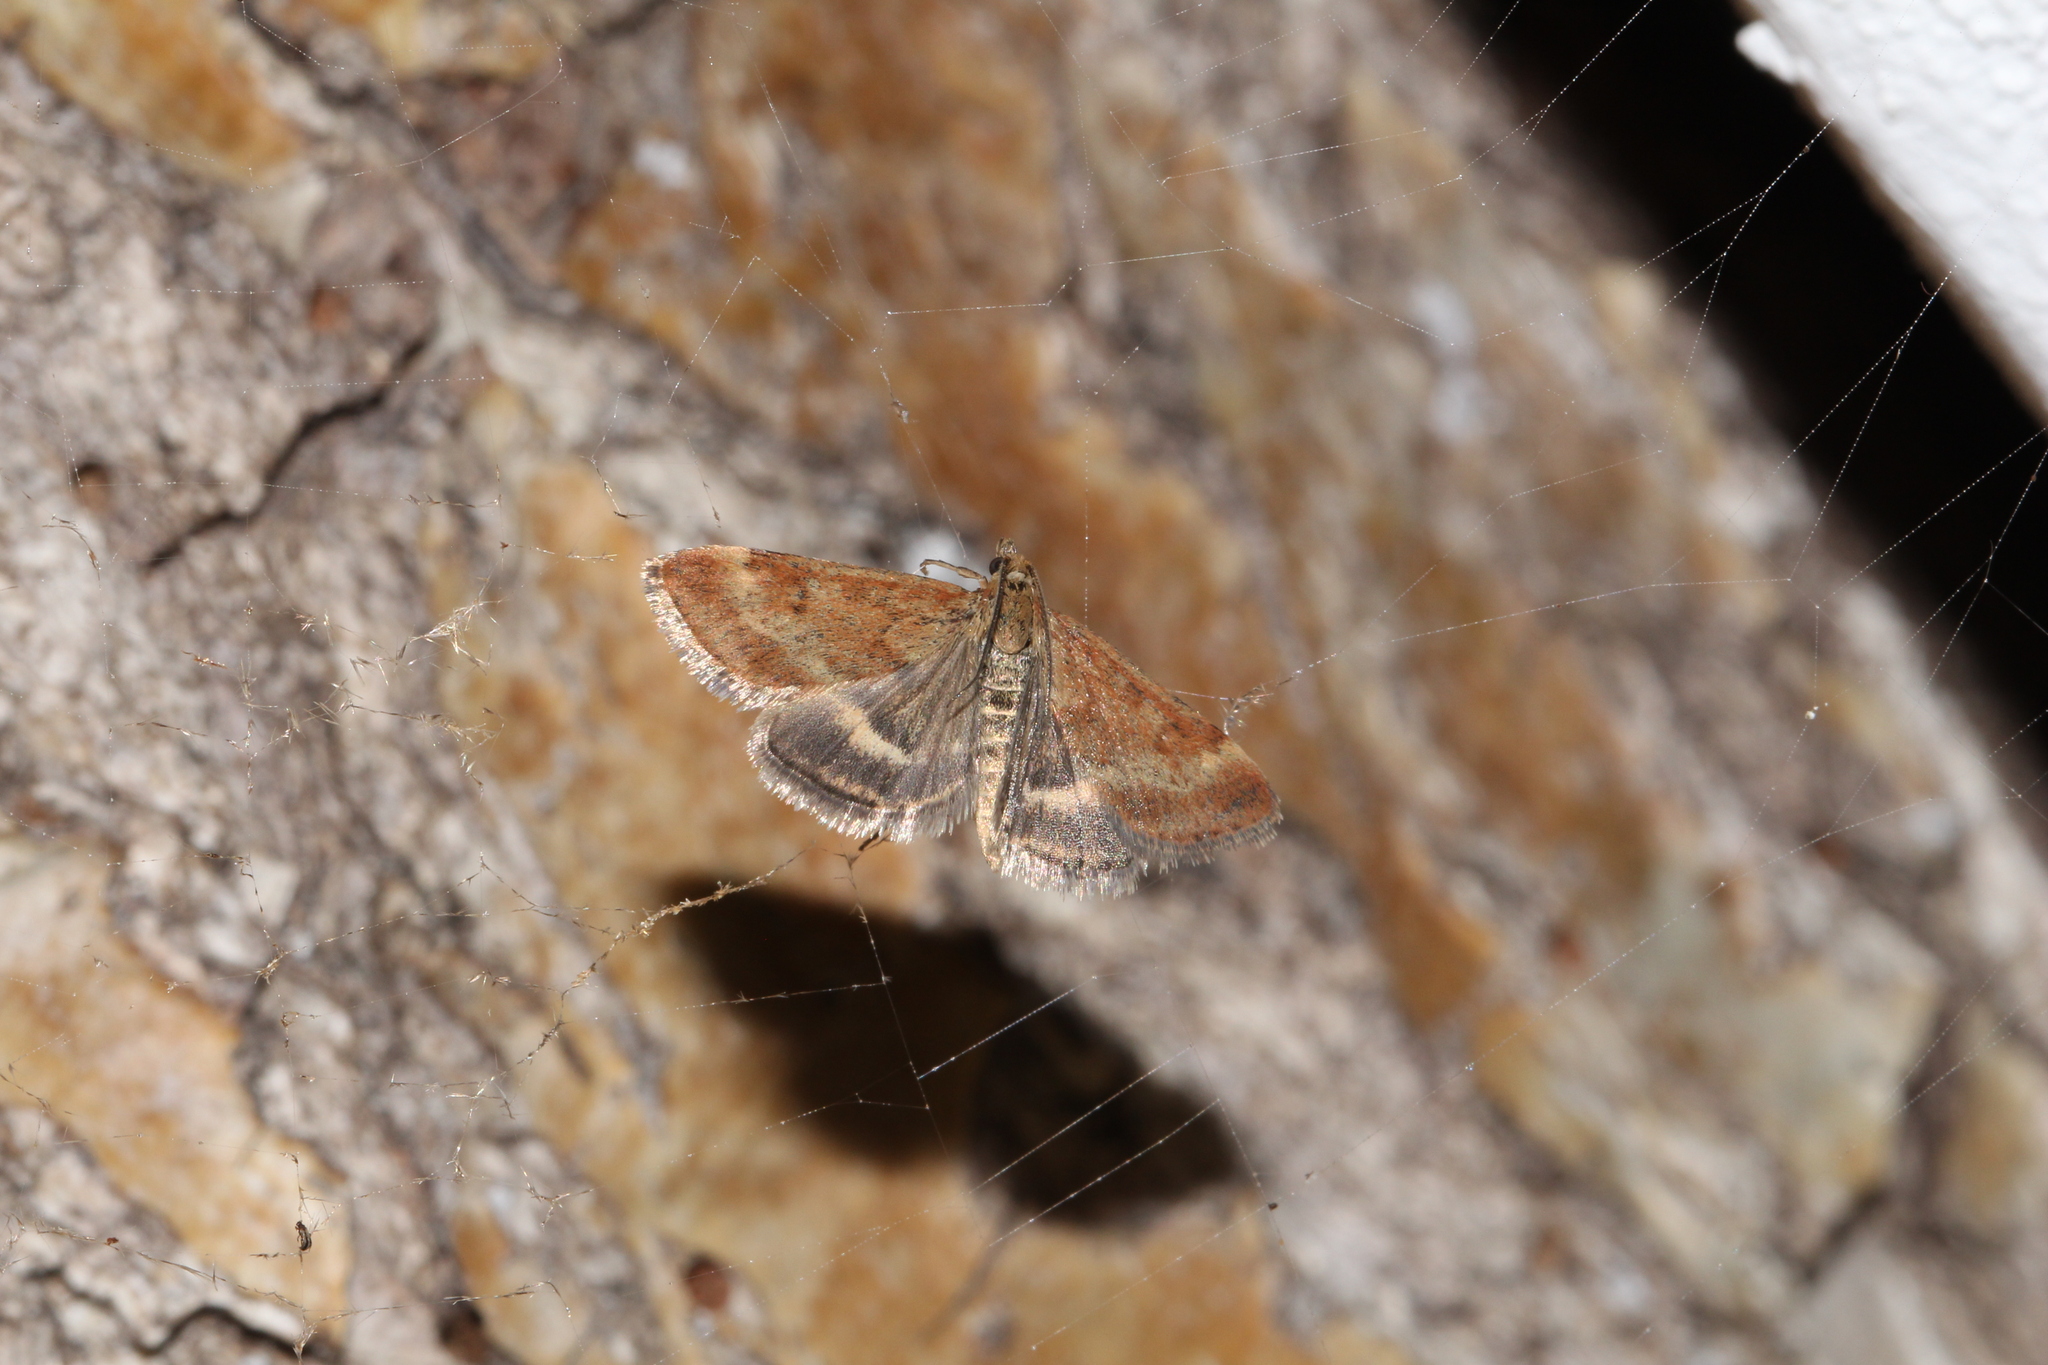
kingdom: Animalia
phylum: Arthropoda
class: Insecta
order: Lepidoptera
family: Crambidae
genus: Pyrausta
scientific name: Pyrausta despicata
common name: Straw-barred pearl
